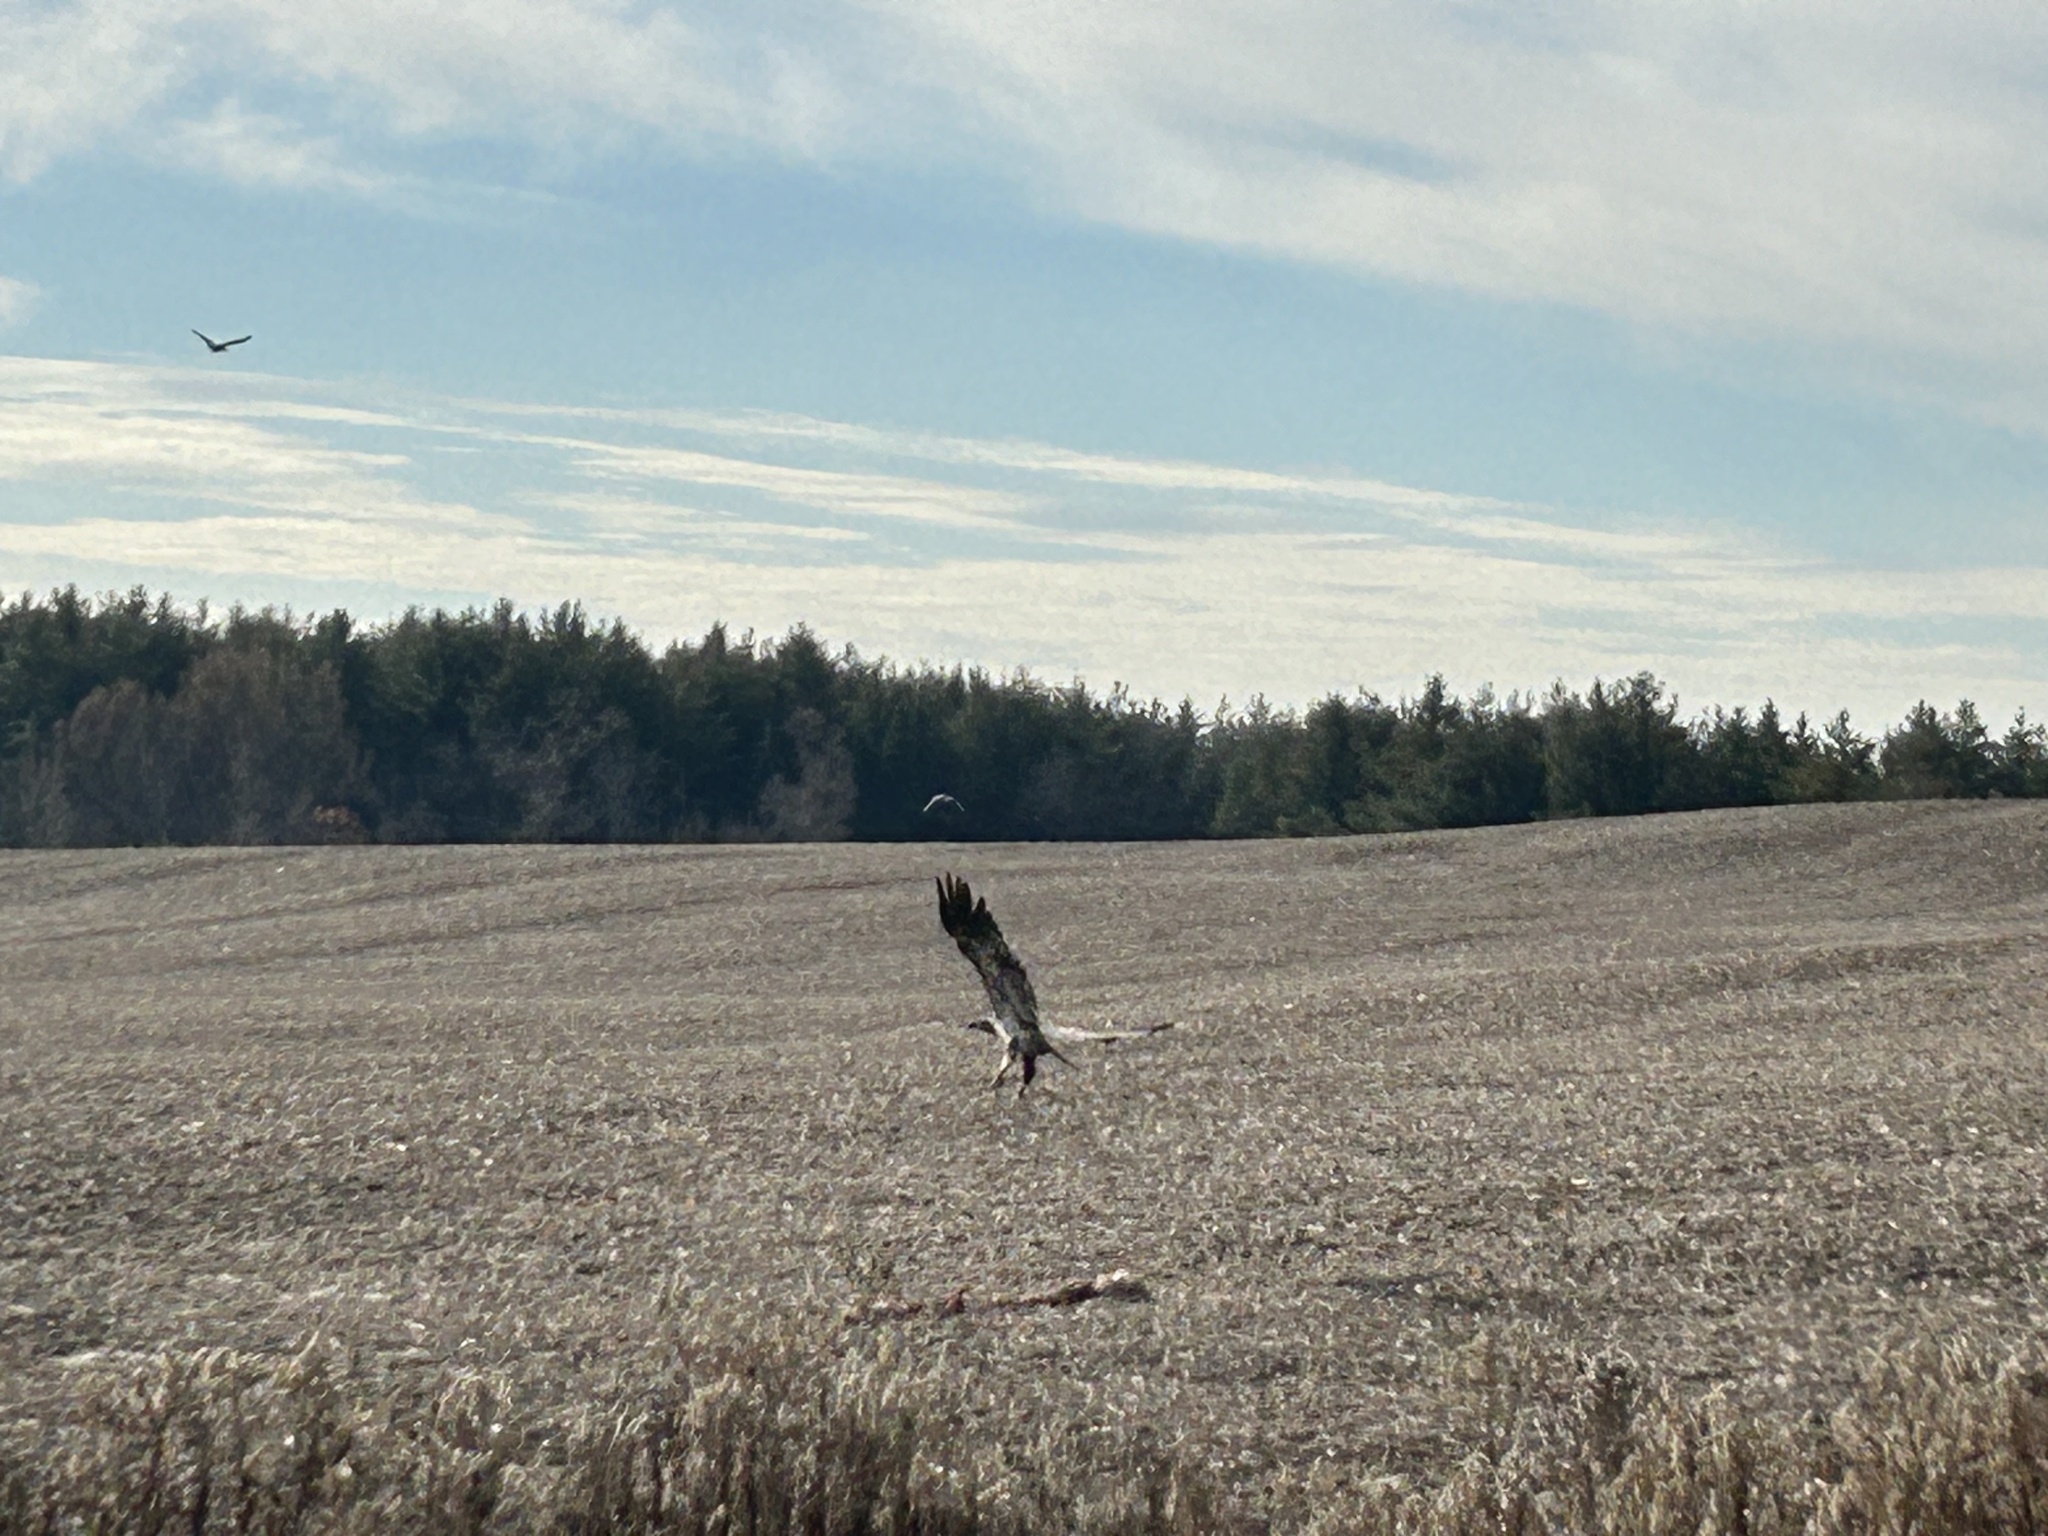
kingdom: Animalia
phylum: Chordata
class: Aves
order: Accipitriformes
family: Accipitridae
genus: Haliaeetus
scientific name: Haliaeetus leucocephalus
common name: Bald eagle
